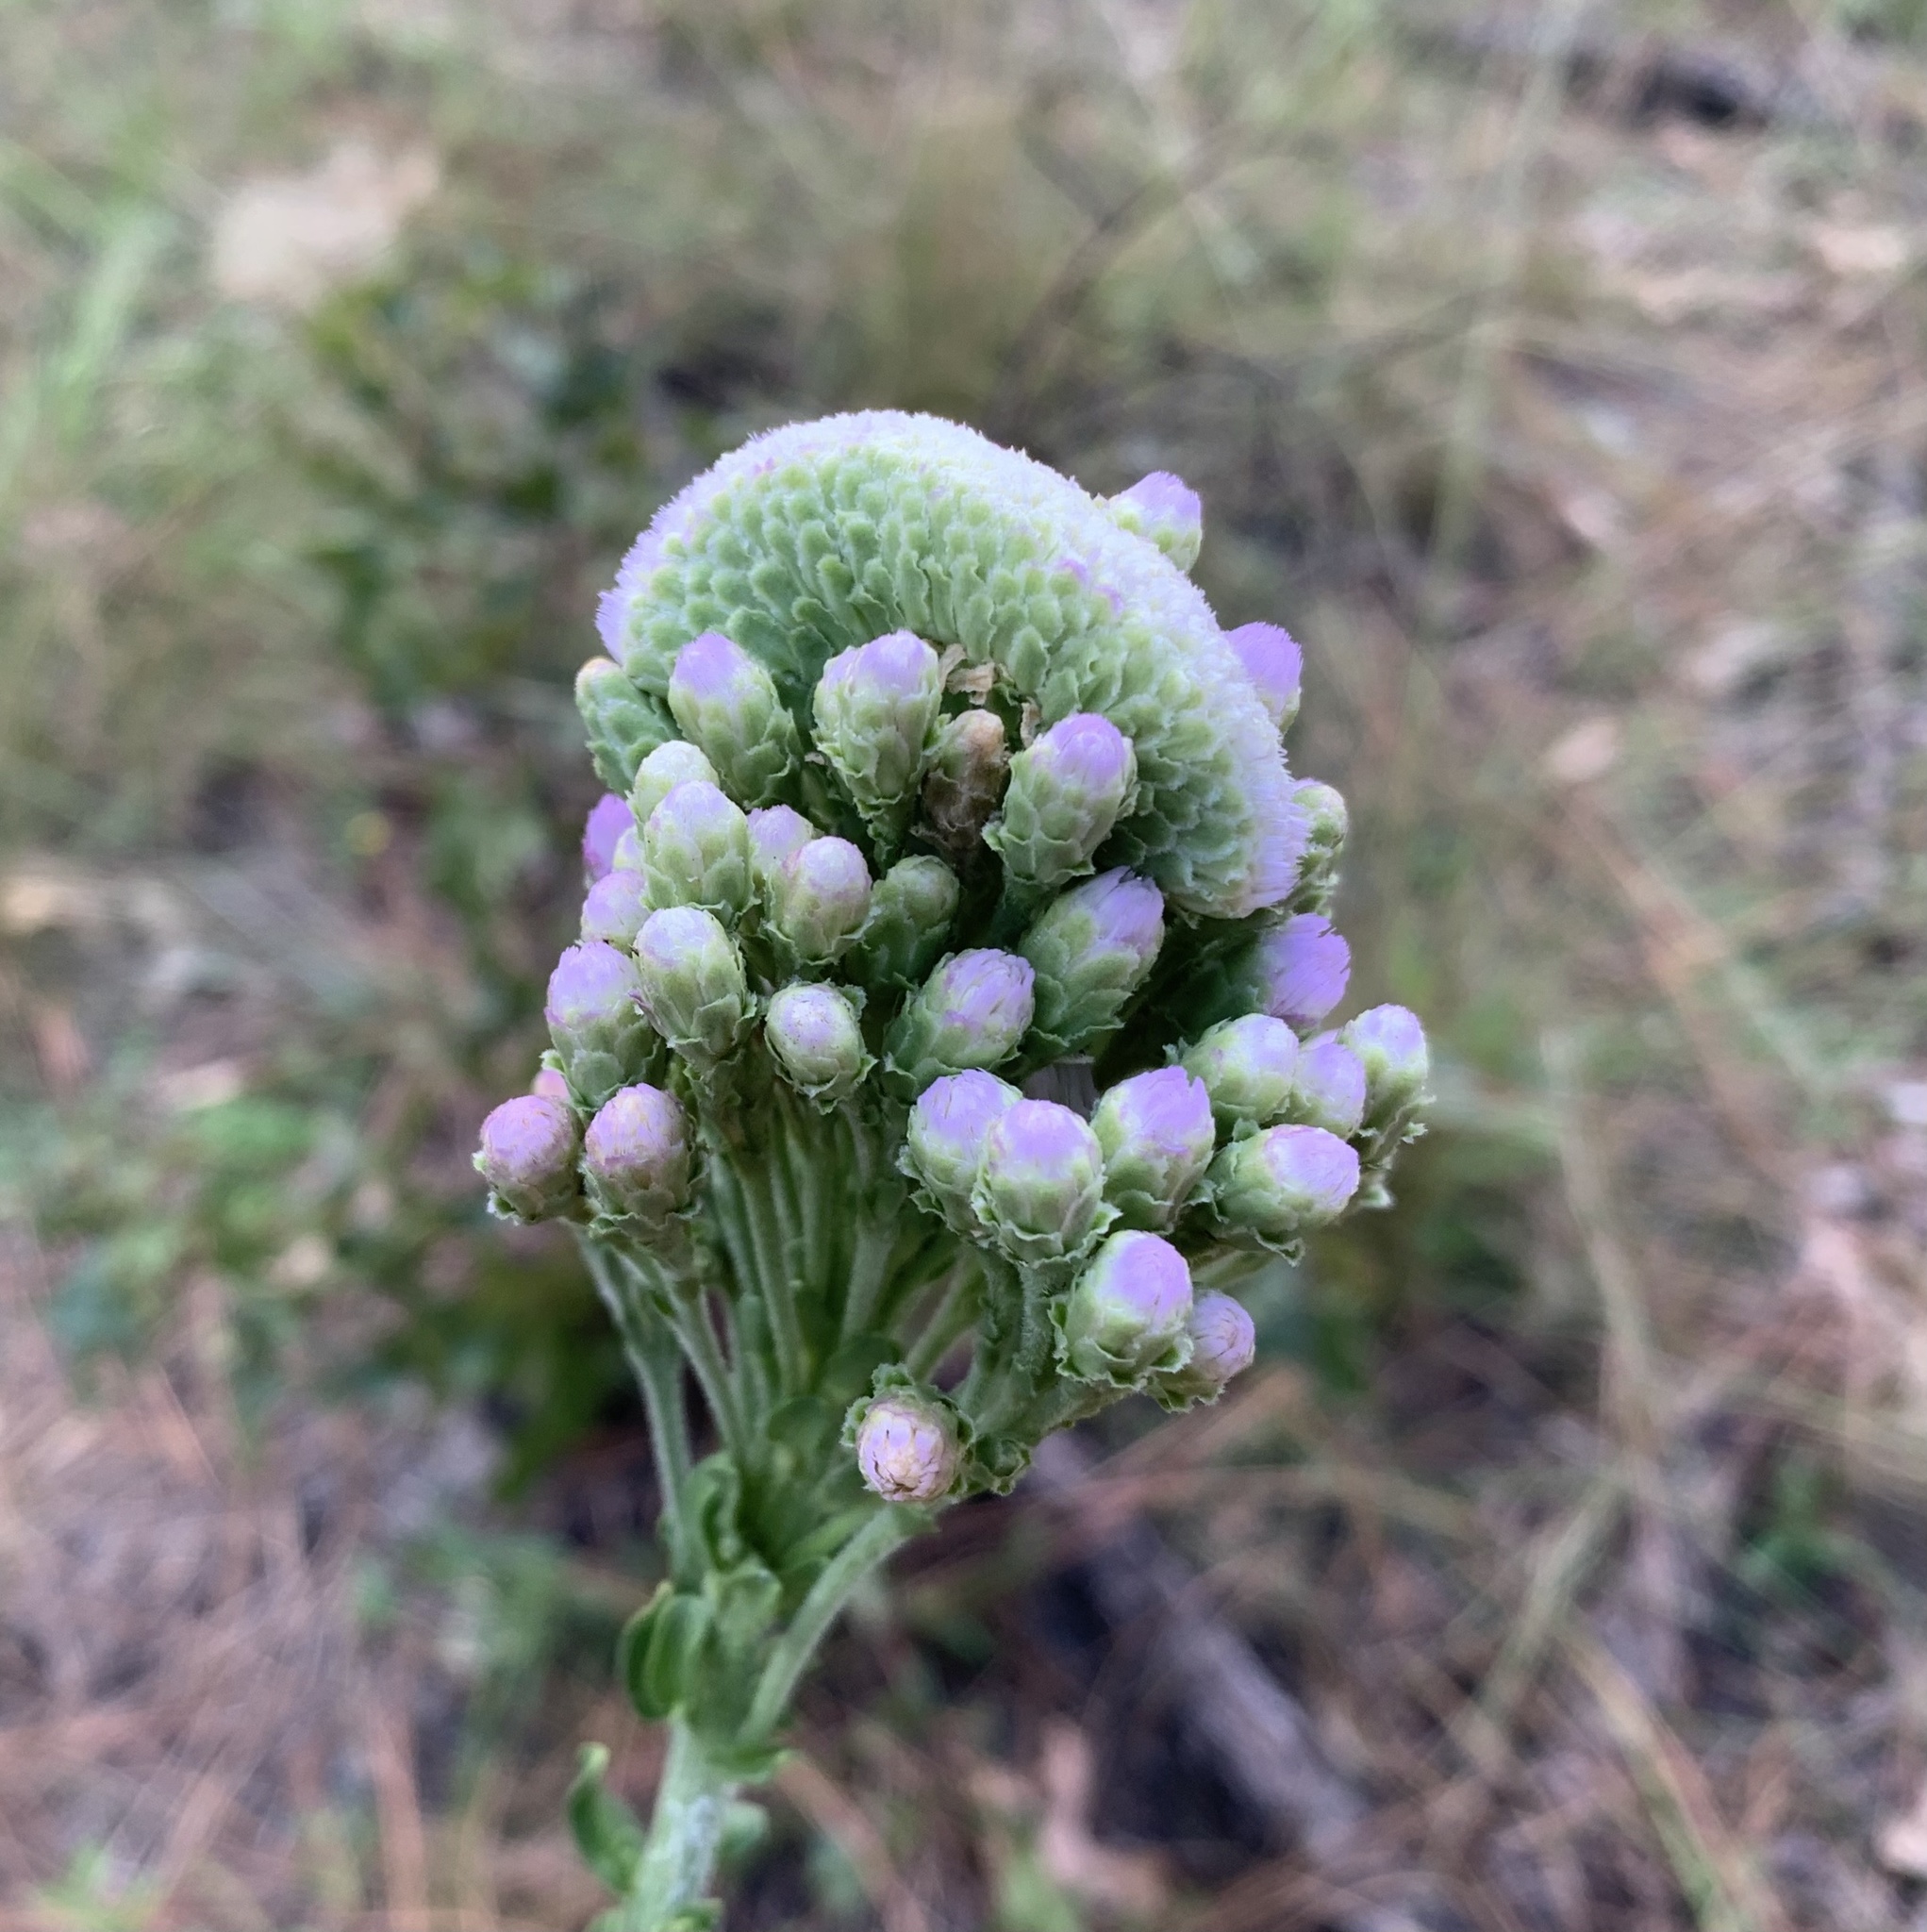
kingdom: Plantae
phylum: Tracheophyta
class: Magnoliopsida
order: Asterales
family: Asteraceae
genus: Carphephorus
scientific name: Carphephorus corymbosus
